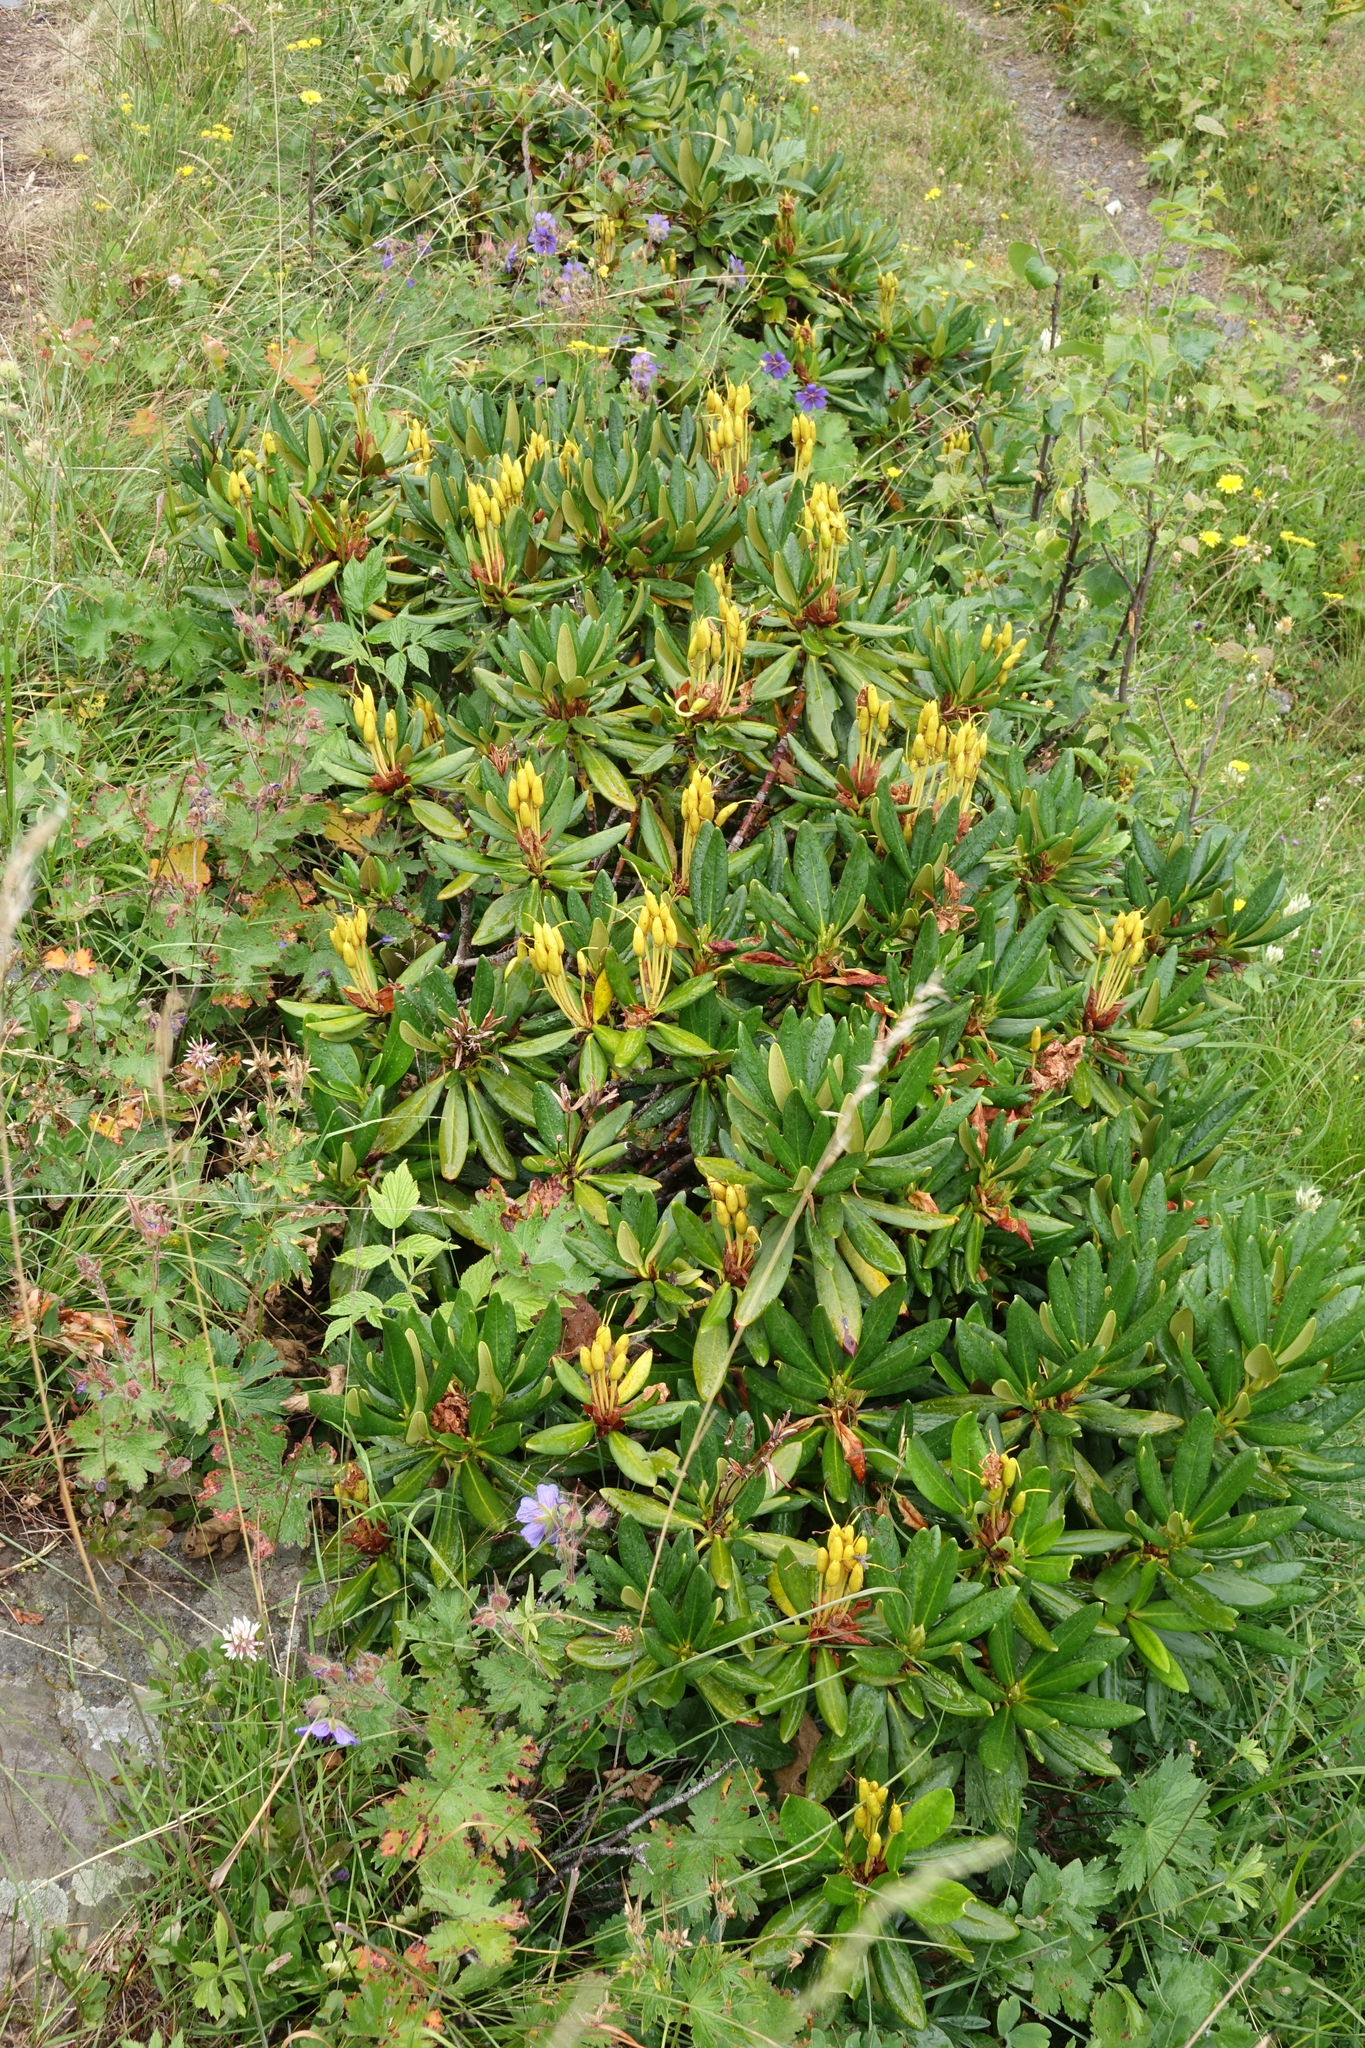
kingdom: Plantae
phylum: Tracheophyta
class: Magnoliopsida
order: Ericales
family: Ericaceae
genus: Rhododendron
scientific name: Rhododendron caucasicum
